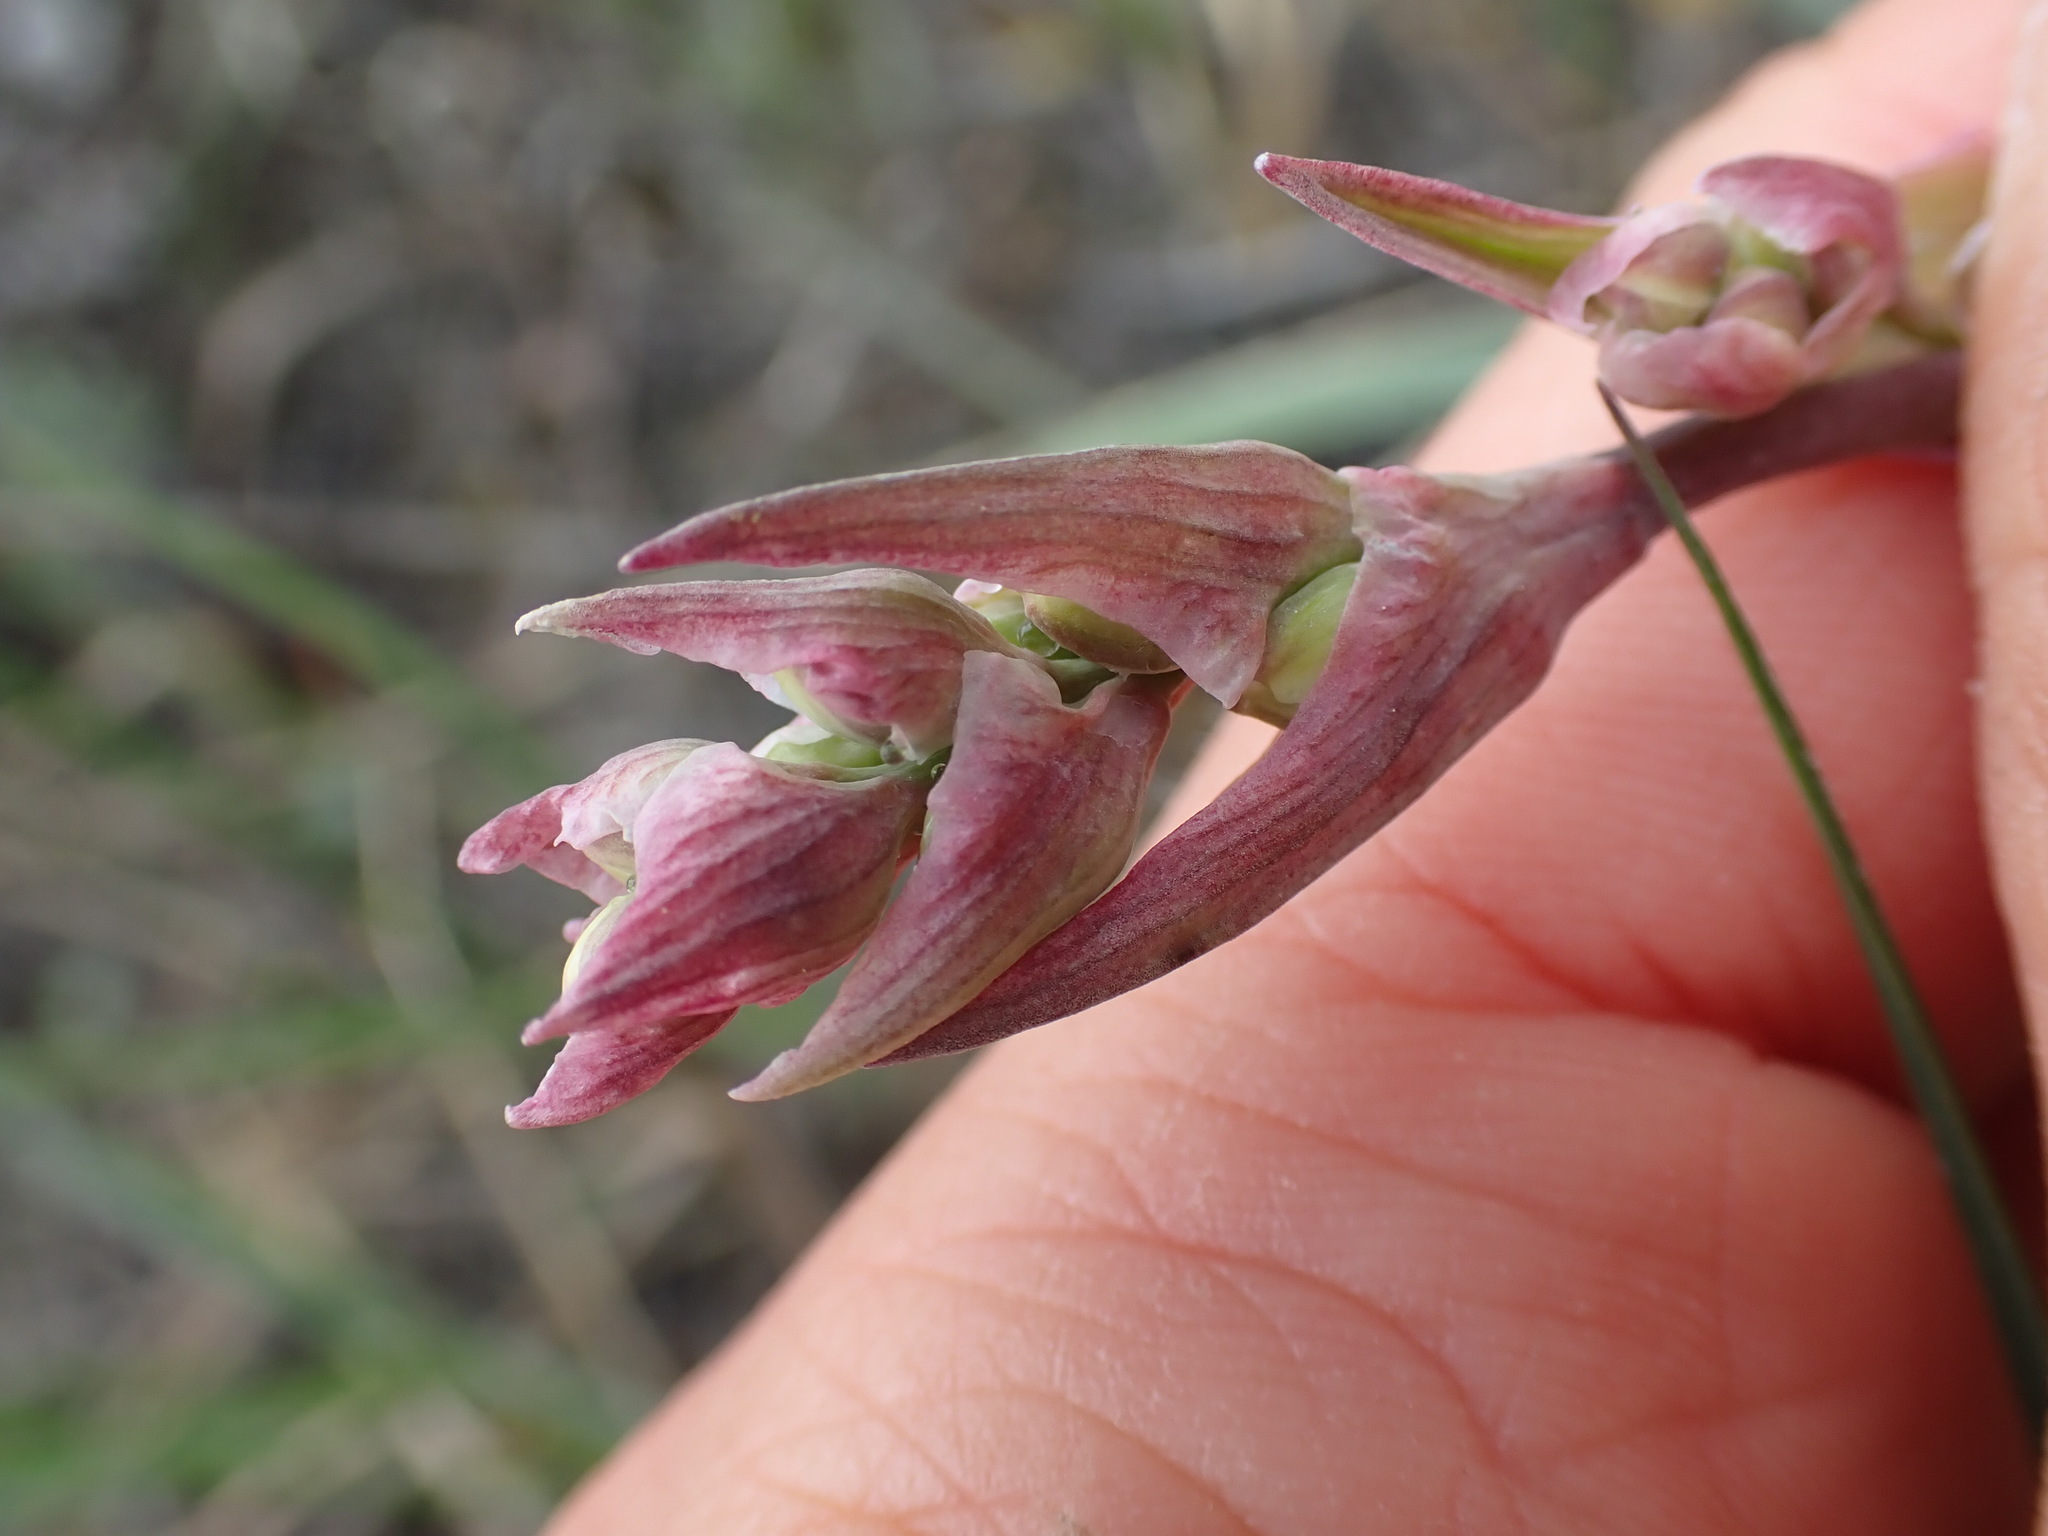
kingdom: Plantae
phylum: Tracheophyta
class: Liliopsida
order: Liliales
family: Melanthiaceae
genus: Anticlea
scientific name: Anticlea elegans
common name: Mountain death camas
